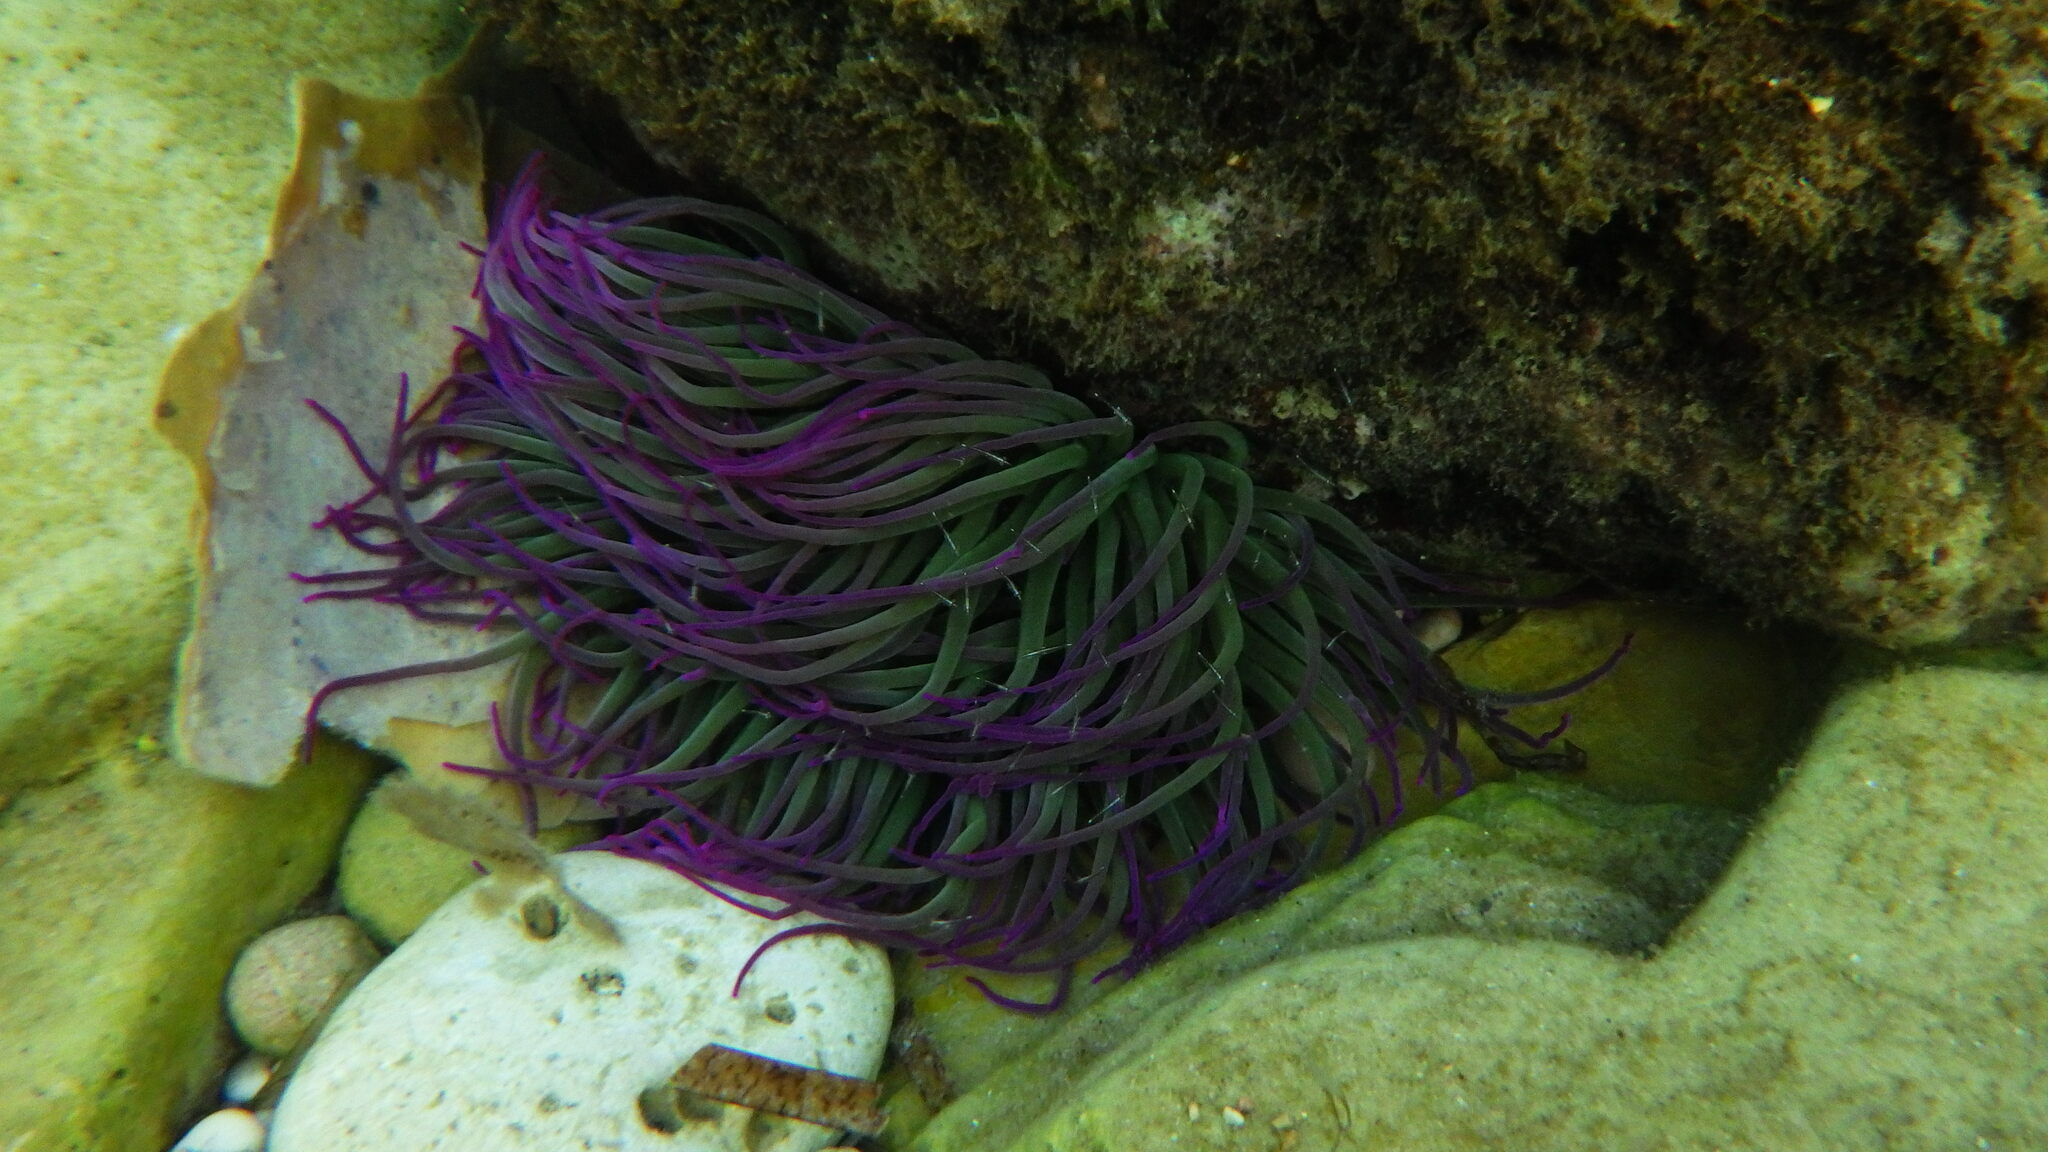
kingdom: Animalia
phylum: Cnidaria
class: Anthozoa
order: Actiniaria
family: Actiniidae
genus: Anemonia
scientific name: Anemonia viridis
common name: Snakelocks anemone
